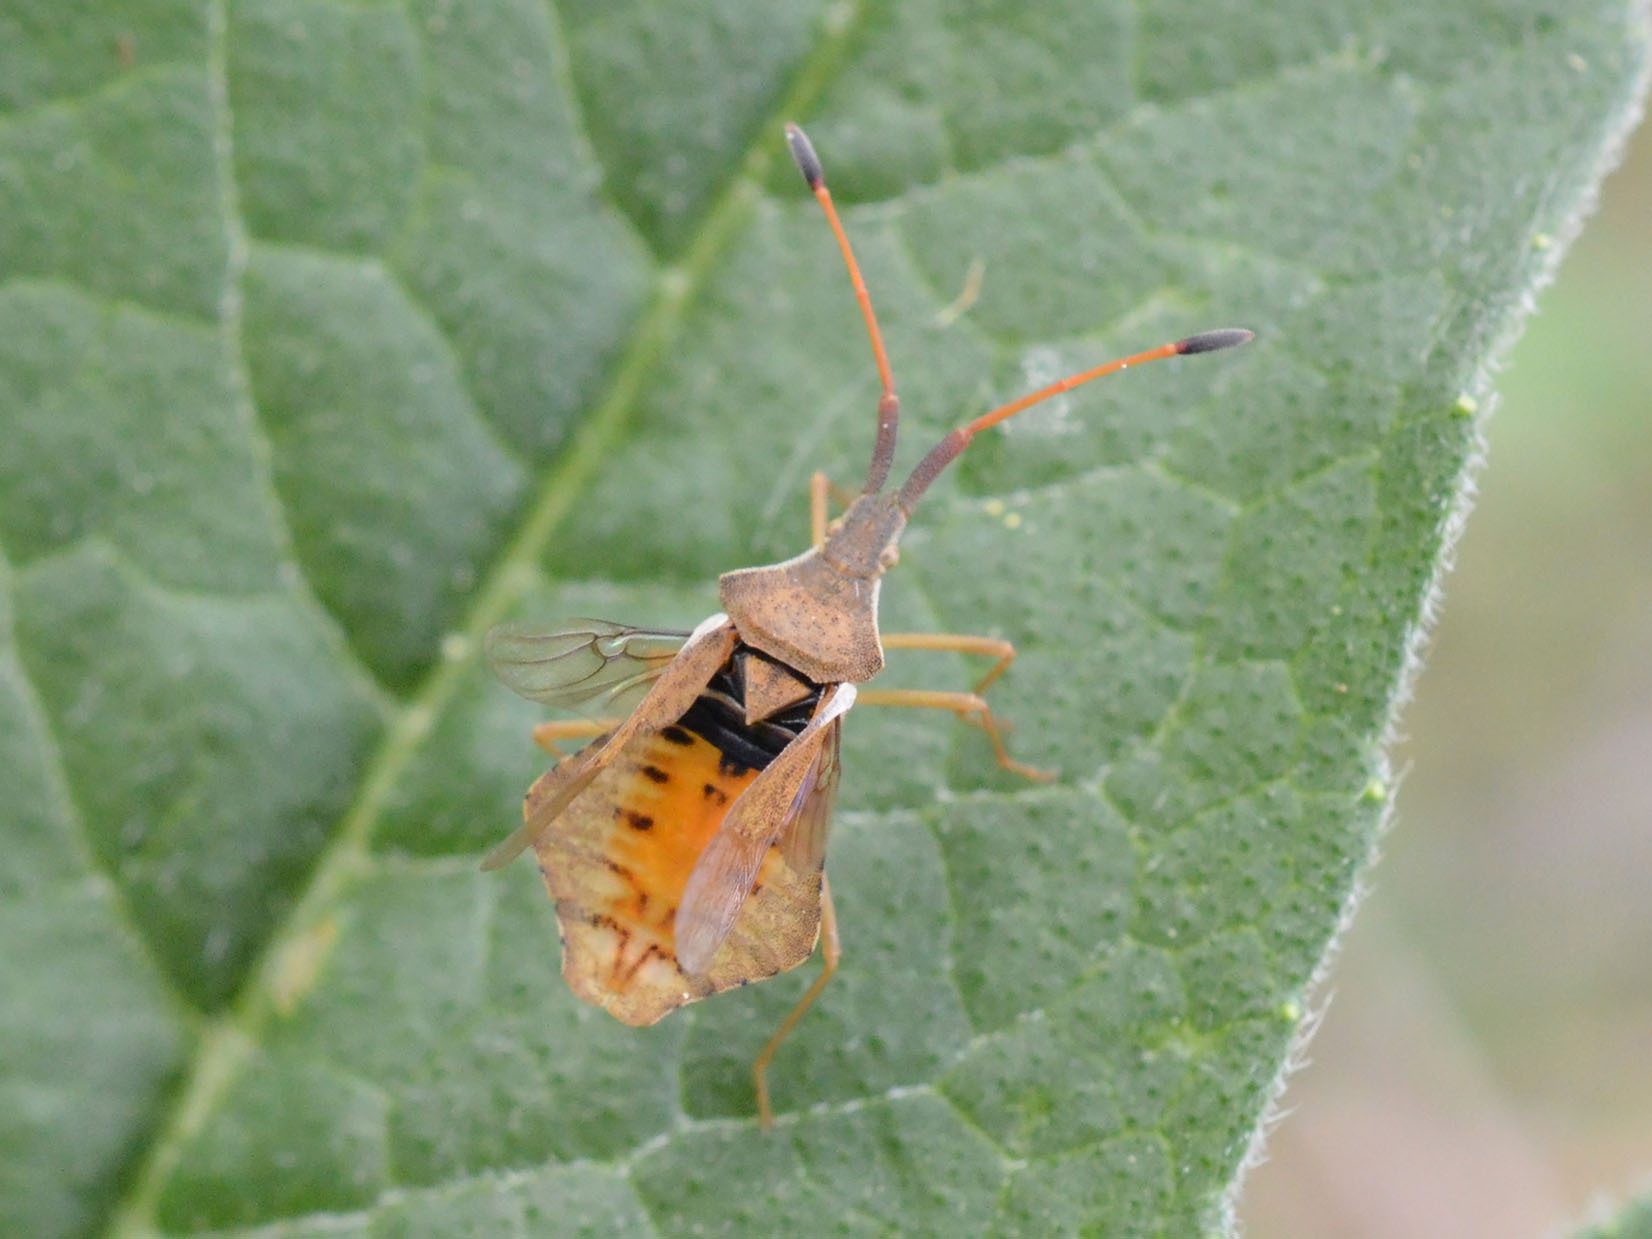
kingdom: Animalia
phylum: Arthropoda
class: Insecta
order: Hemiptera
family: Coreidae
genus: Syromastus
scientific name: Syromastus rhombeus
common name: Rhombic leatherbug
